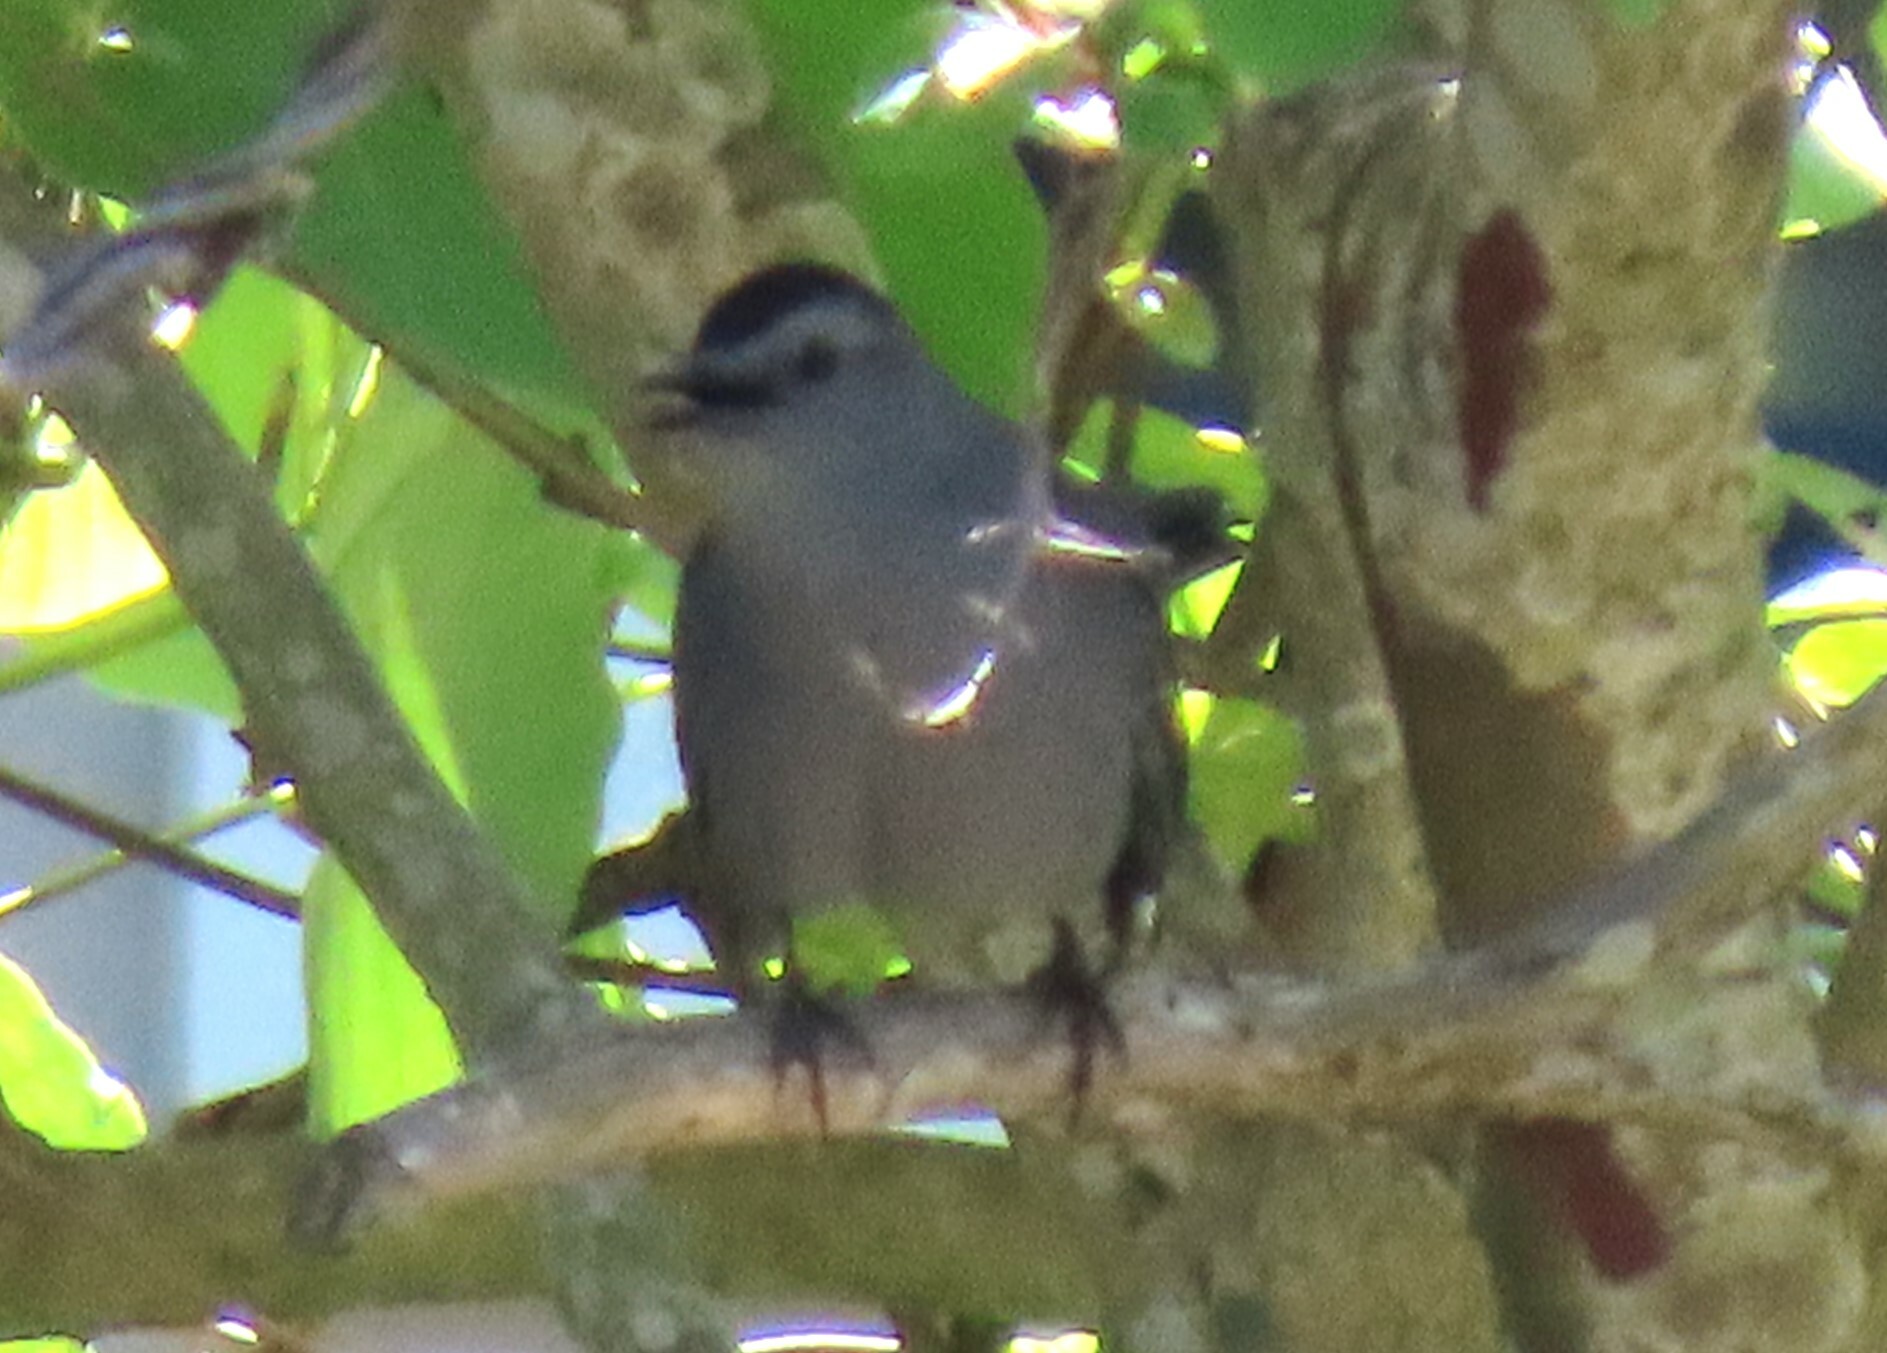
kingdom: Animalia
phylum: Chordata
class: Aves
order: Passeriformes
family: Mimidae
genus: Dumetella
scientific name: Dumetella carolinensis
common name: Gray catbird
